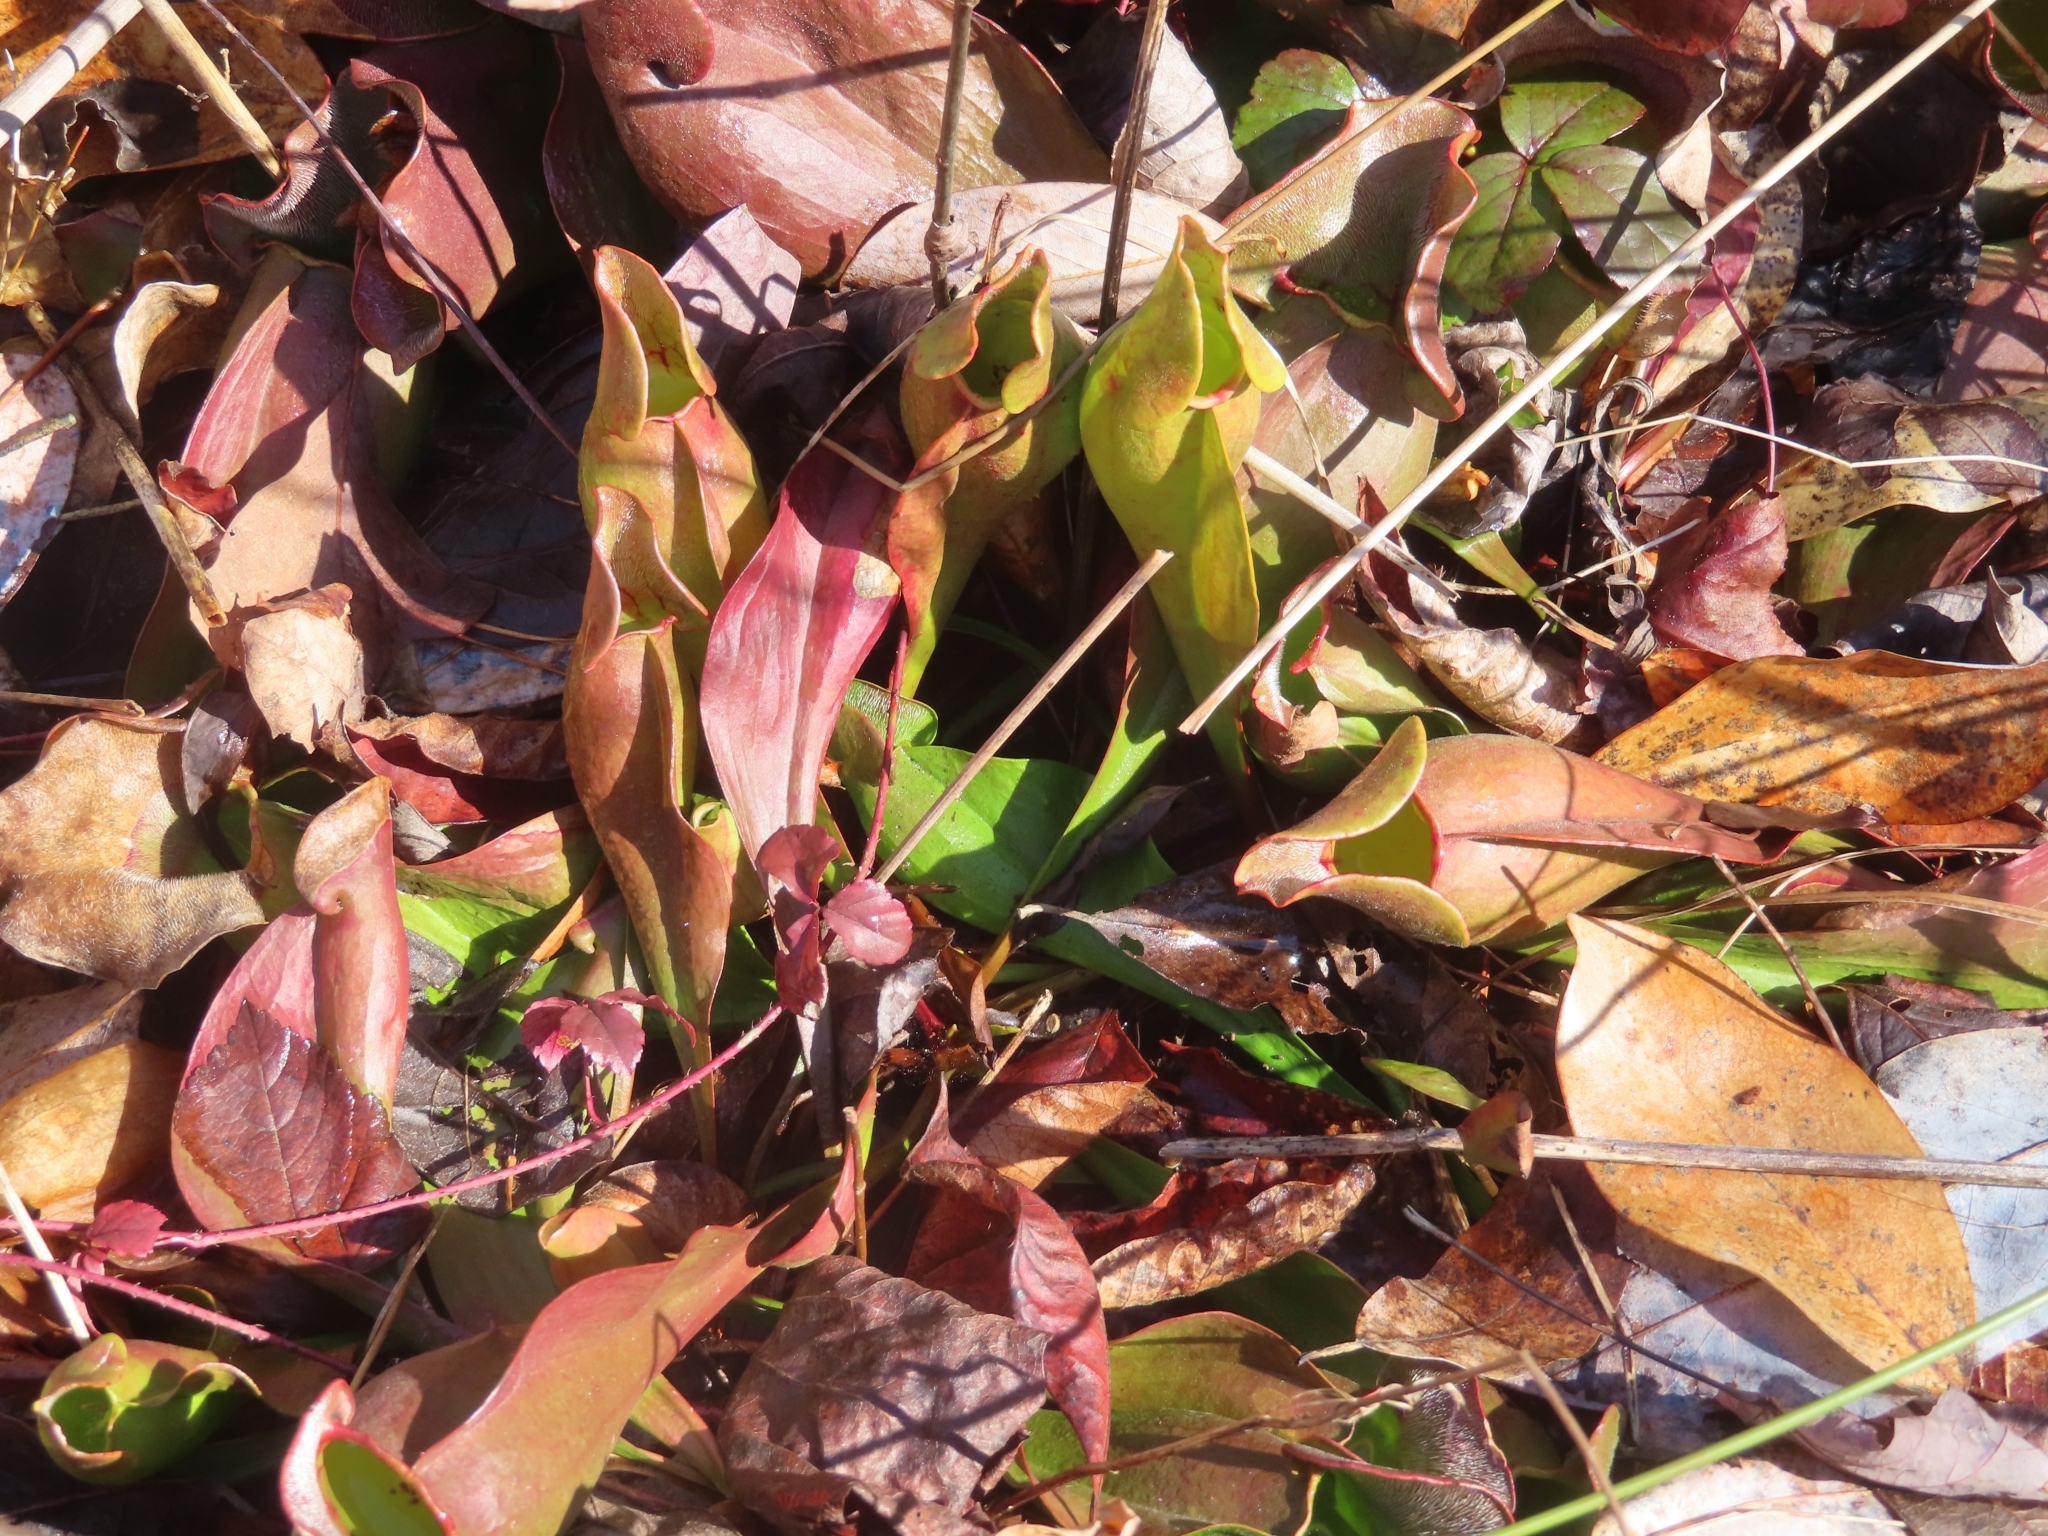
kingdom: Plantae
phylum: Tracheophyta
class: Magnoliopsida
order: Ericales
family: Sarraceniaceae
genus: Sarracenia
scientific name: Sarracenia purpurea
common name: Pitcherplant
